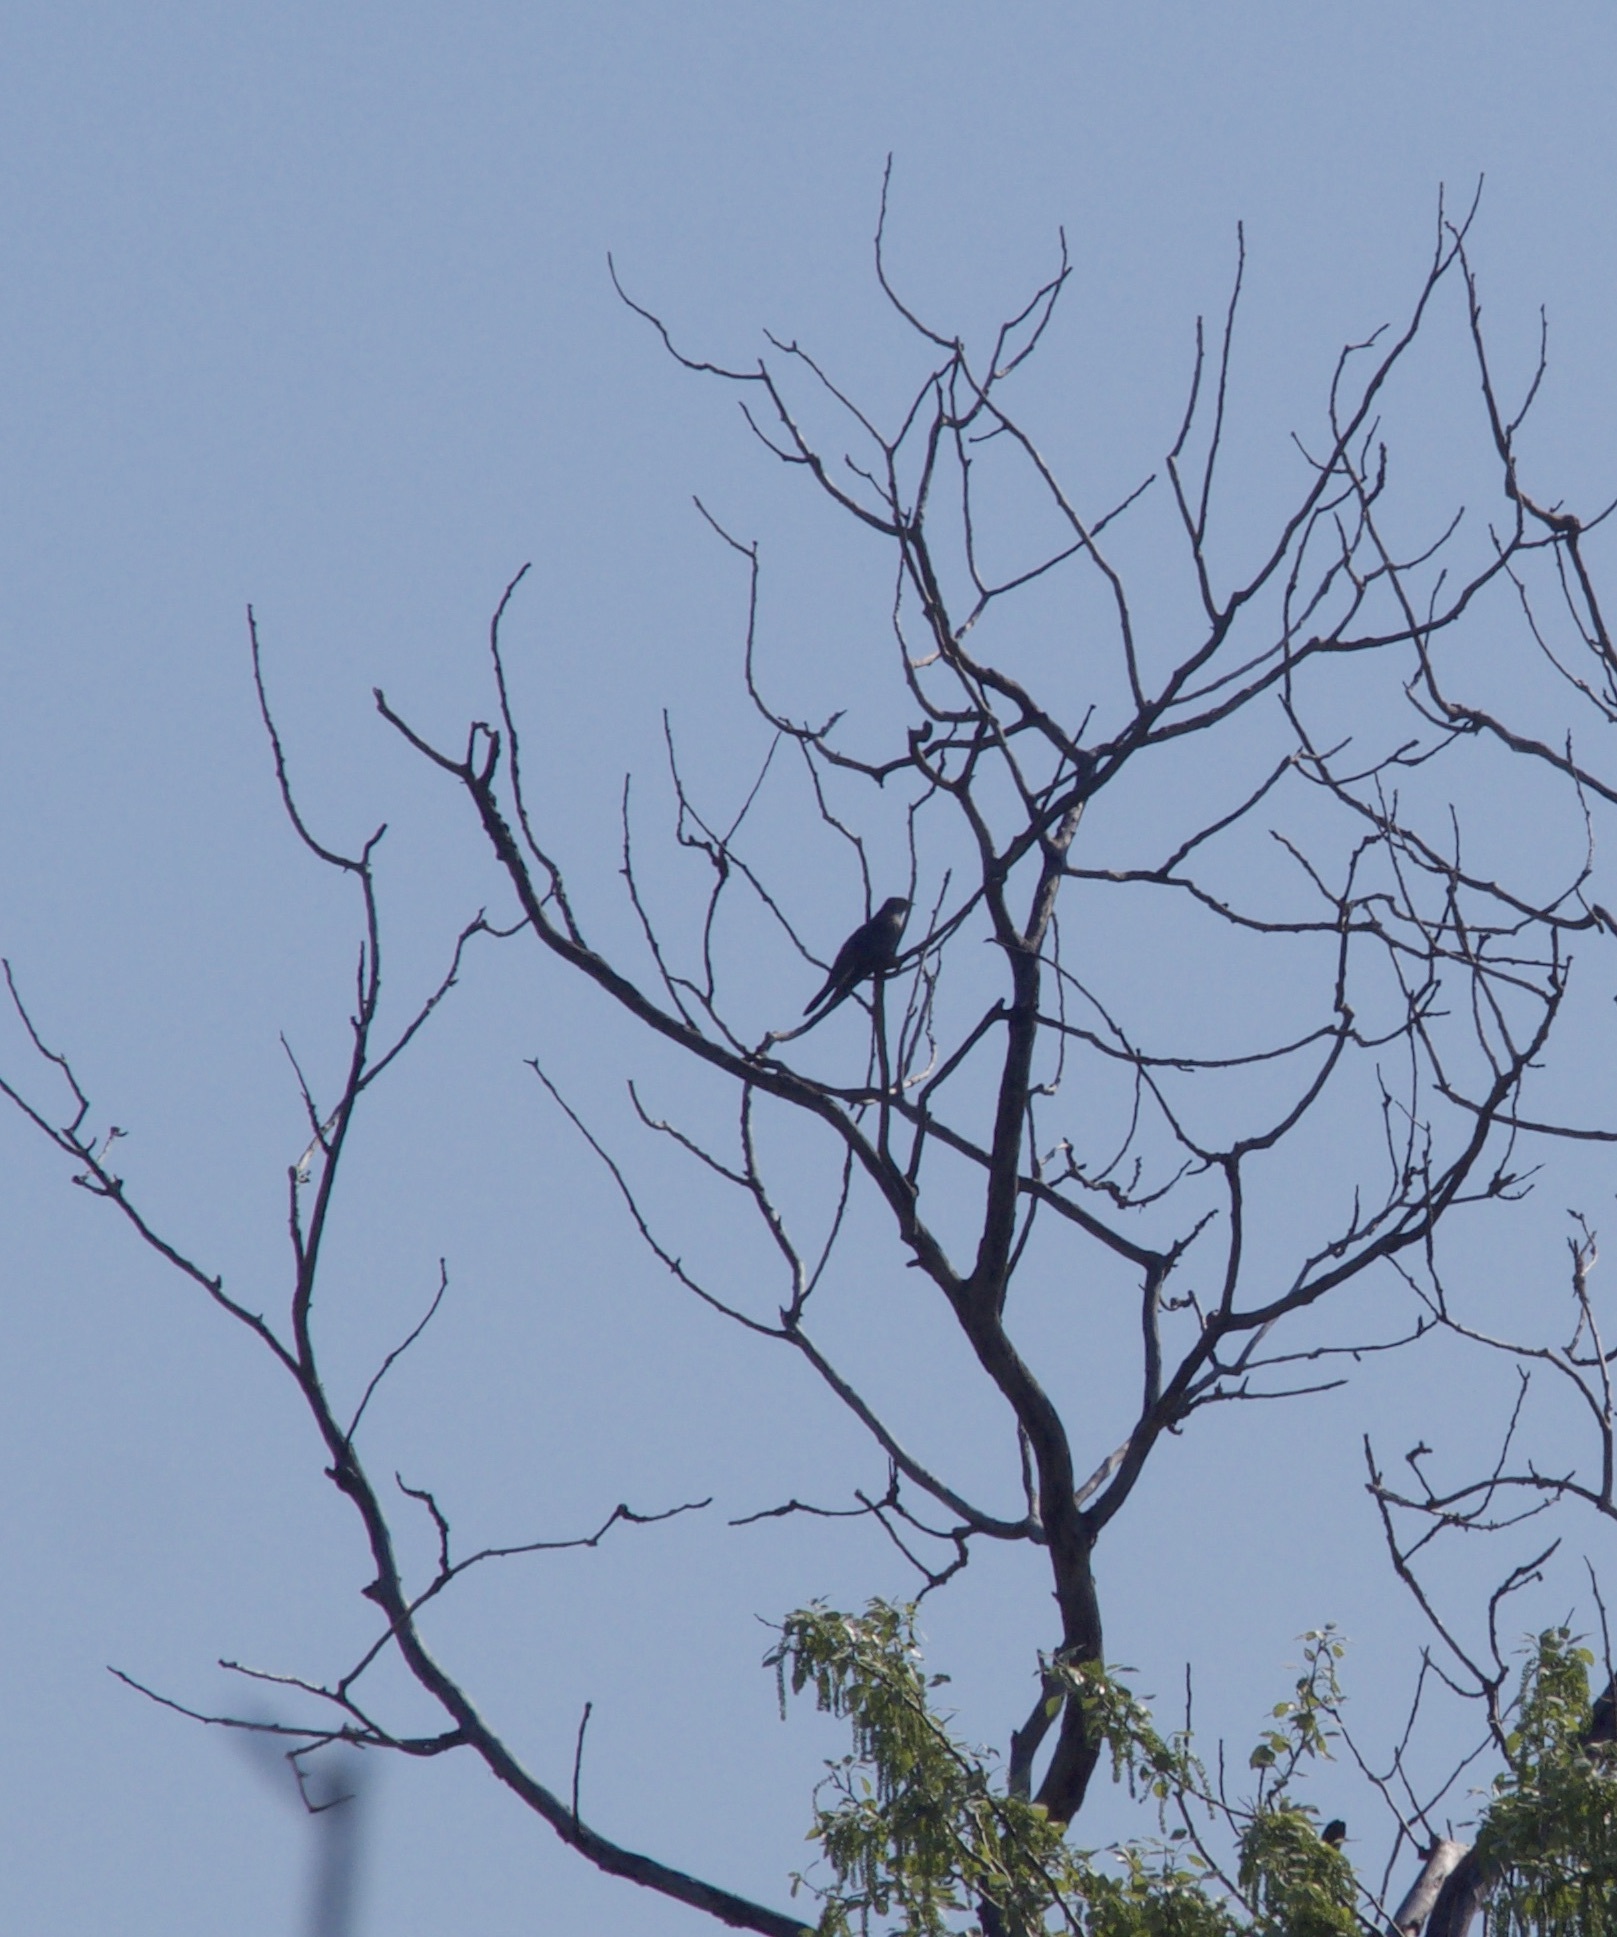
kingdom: Animalia
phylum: Chordata
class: Aves
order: Cuculiformes
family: Cuculidae
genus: Cuculus
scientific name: Cuculus canorus
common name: Common cuckoo
